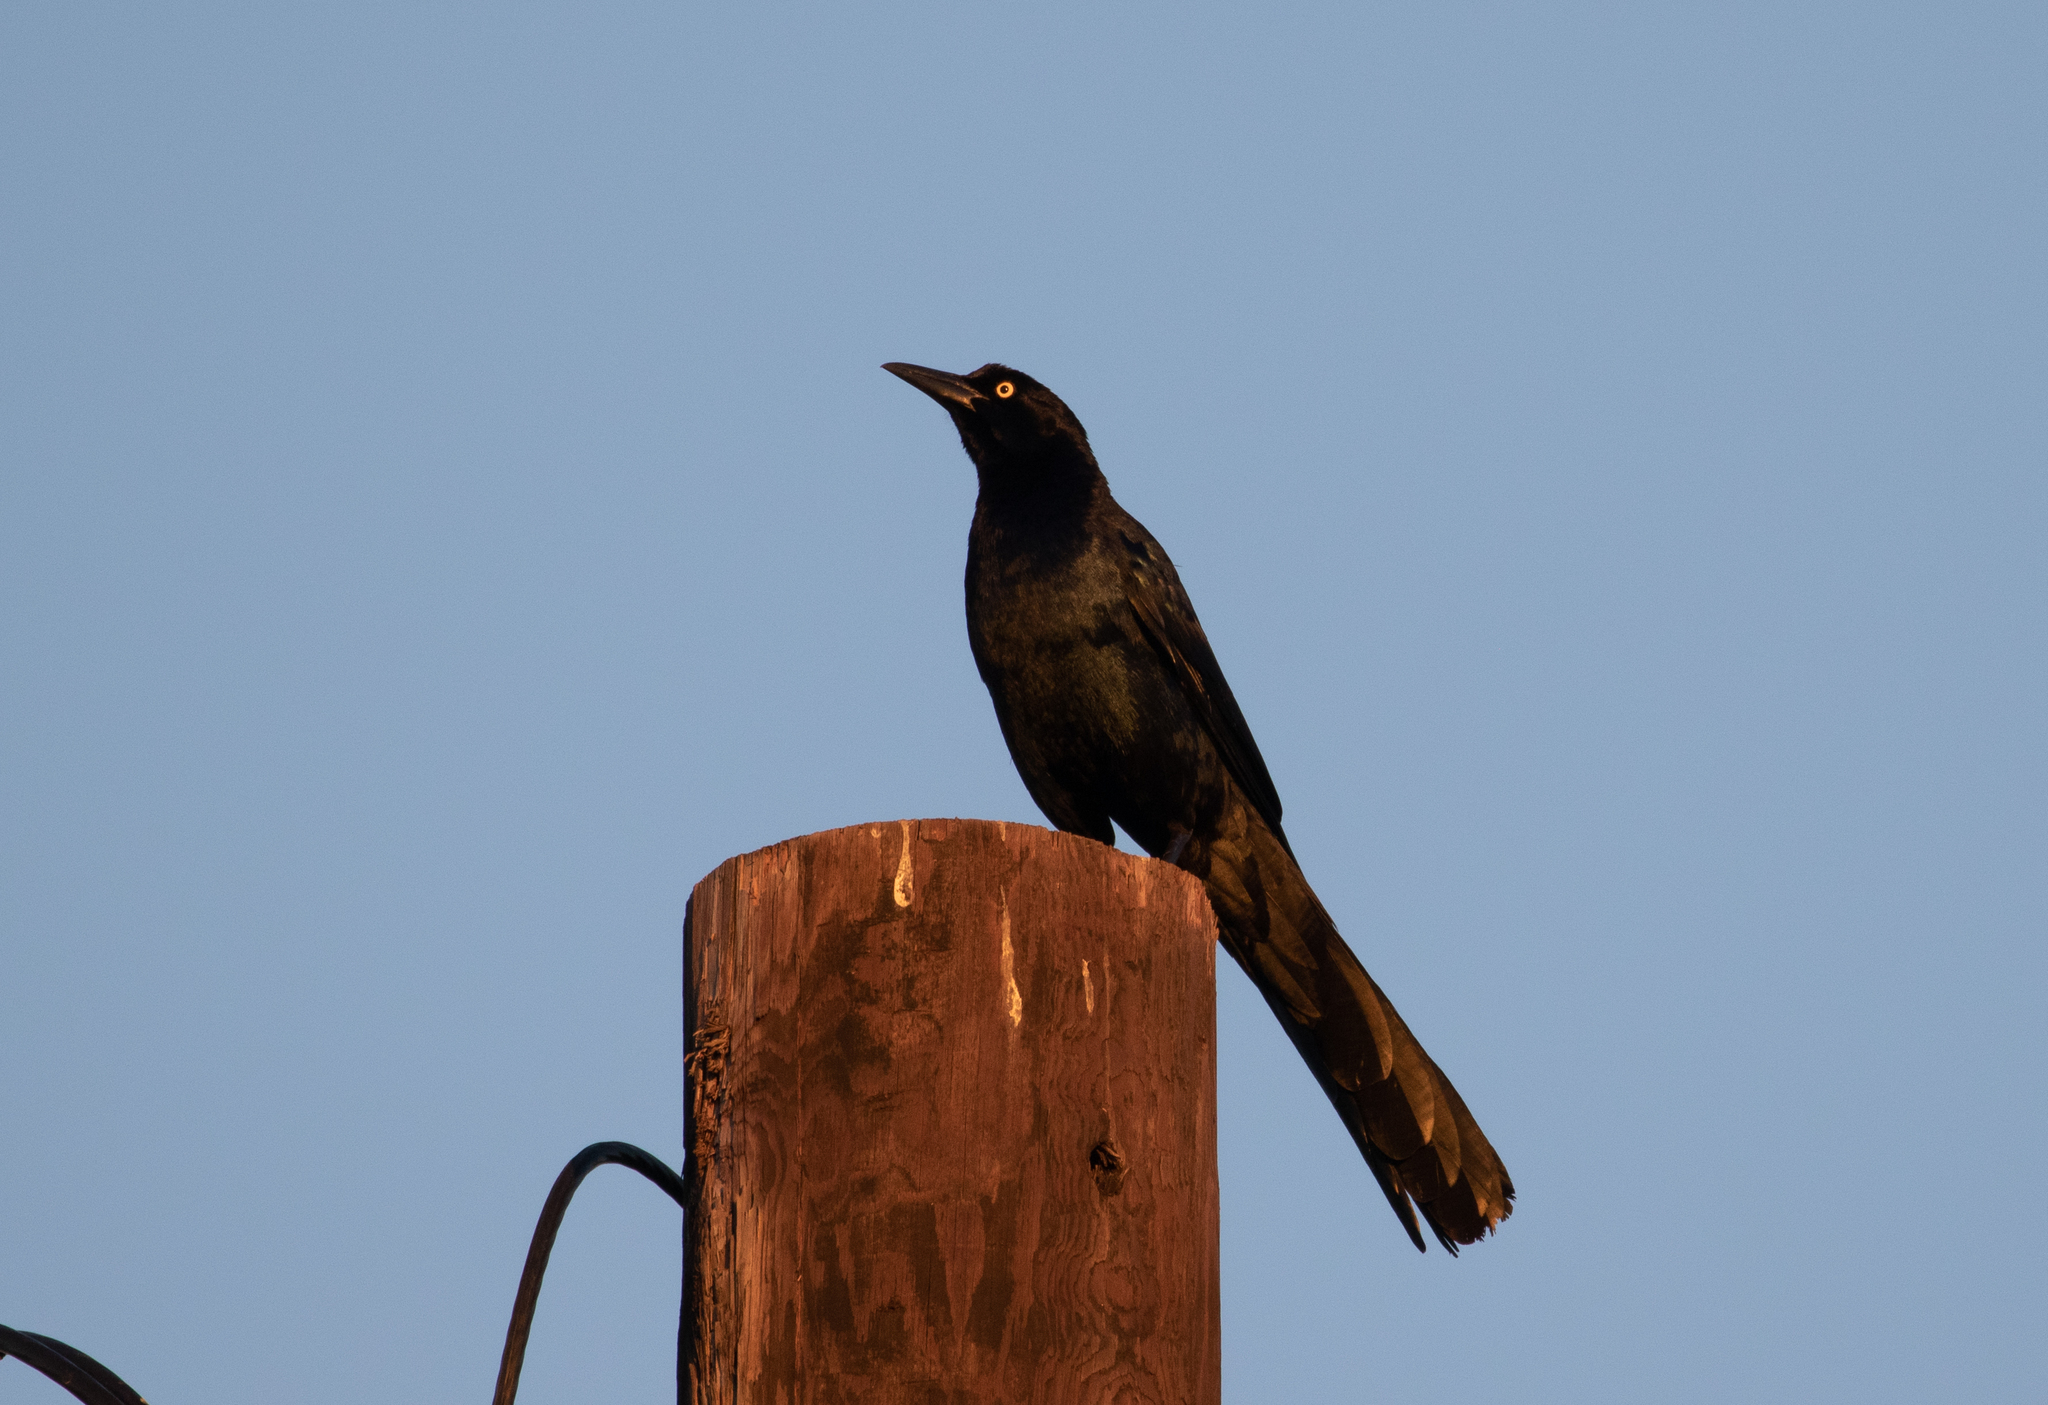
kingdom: Animalia
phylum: Chordata
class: Aves
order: Passeriformes
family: Icteridae
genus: Quiscalus
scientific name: Quiscalus mexicanus
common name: Great-tailed grackle
